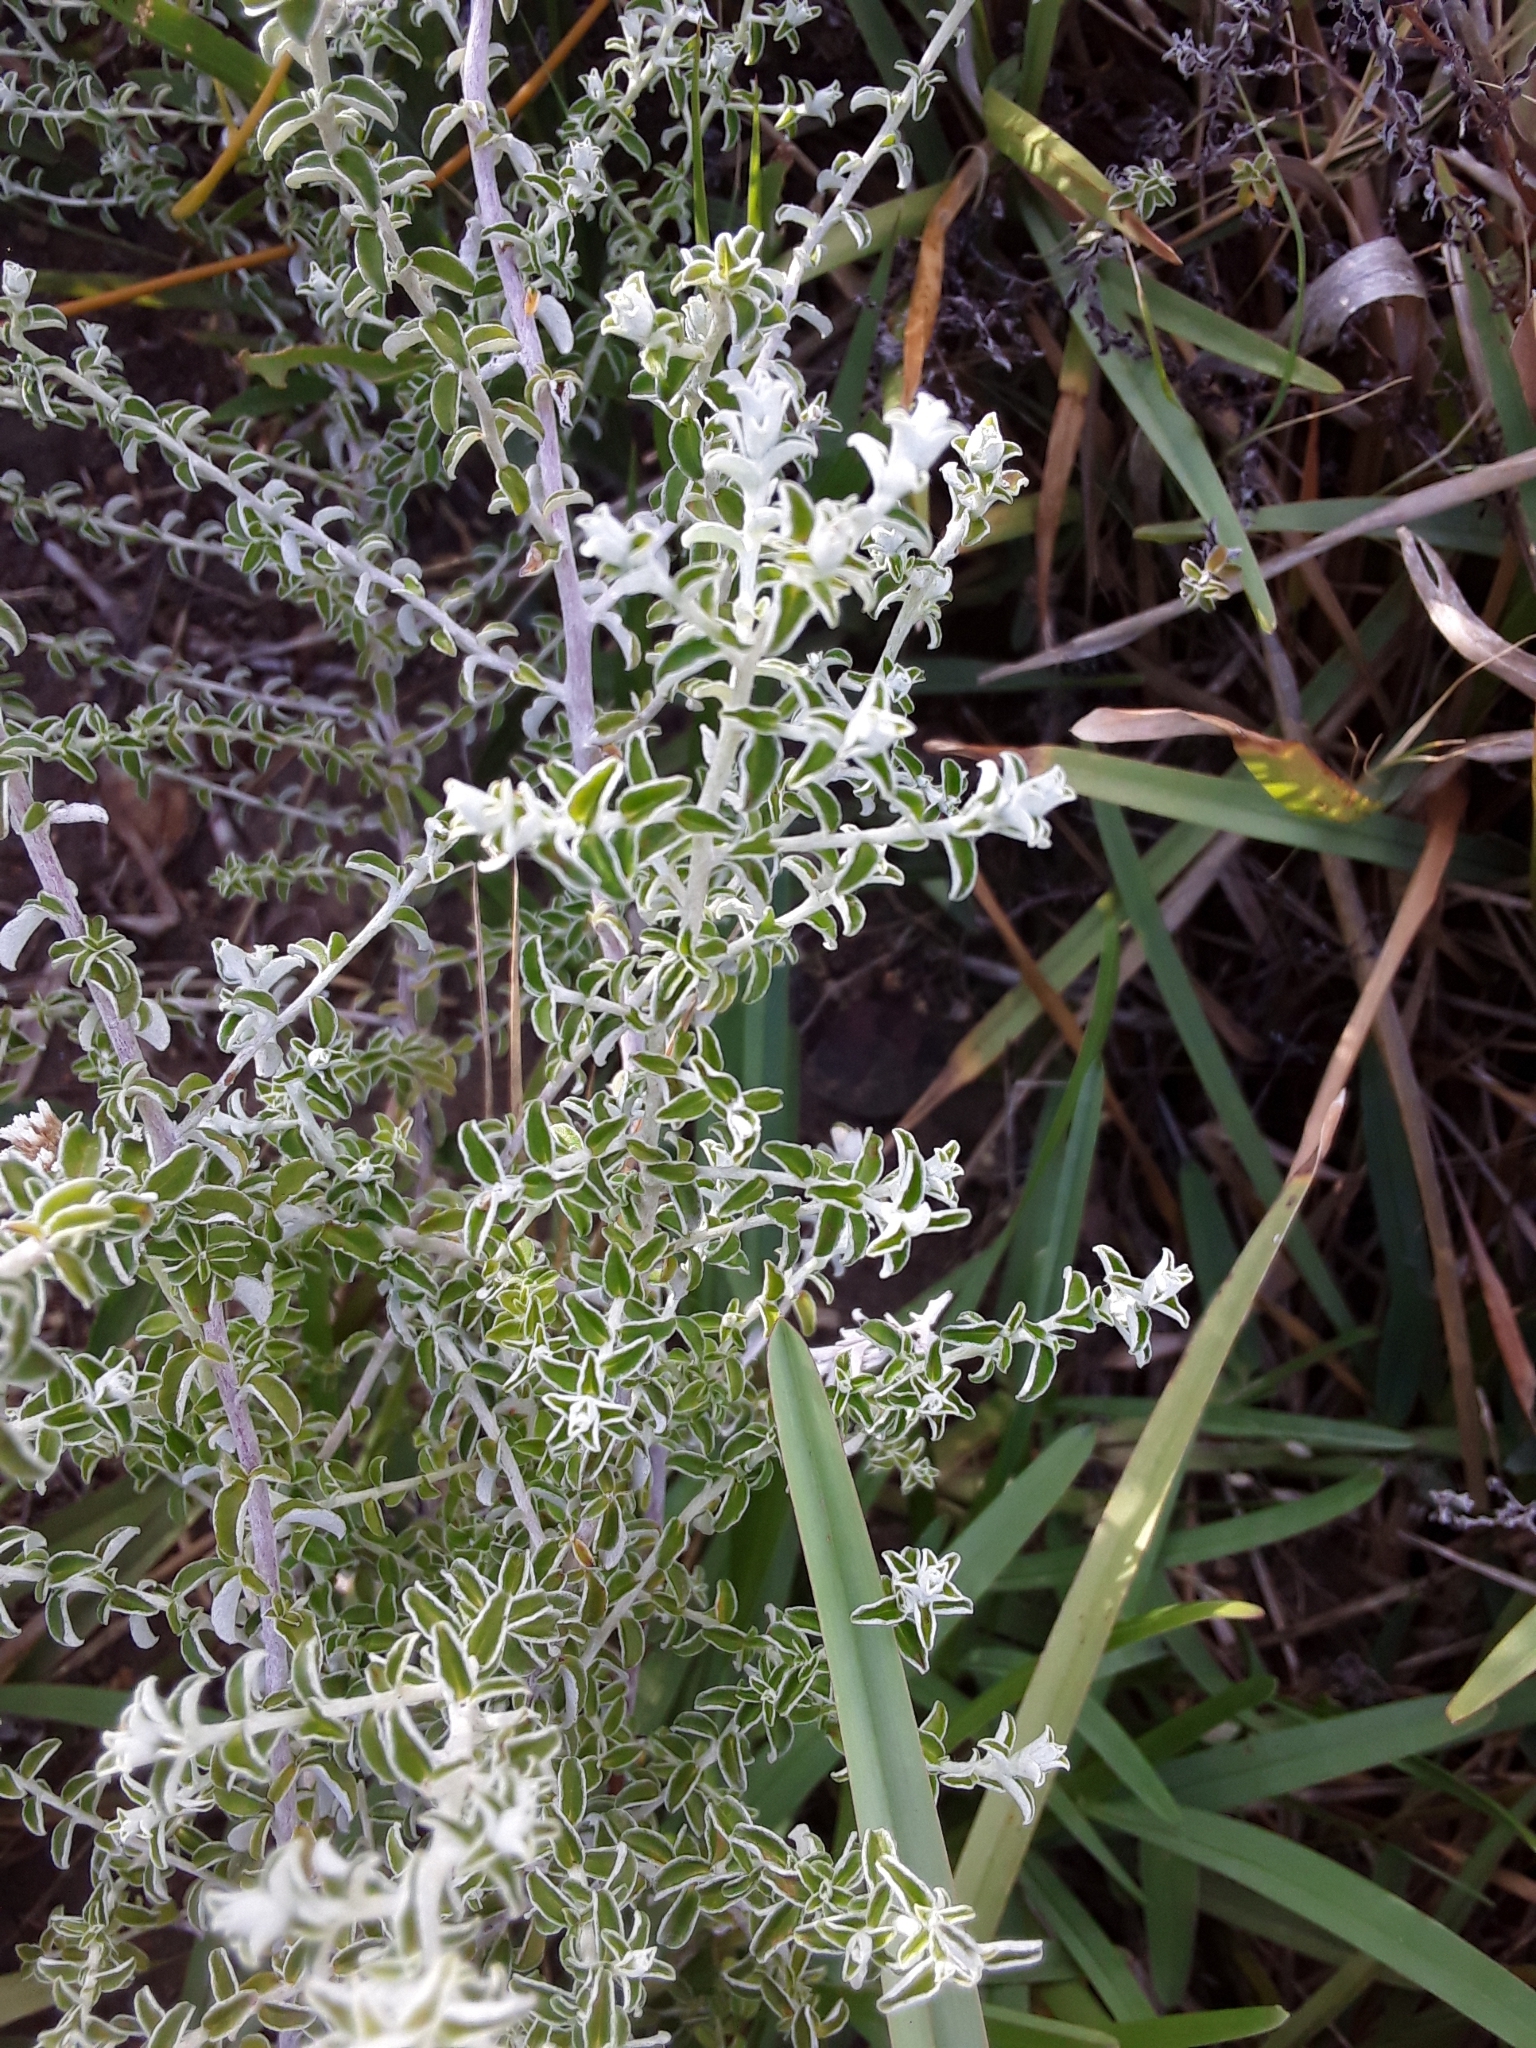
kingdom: Plantae
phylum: Tracheophyta
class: Magnoliopsida
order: Asterales
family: Asteraceae
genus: Plecostachys
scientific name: Plecostachys serpyllifolia
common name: Petite licorice
